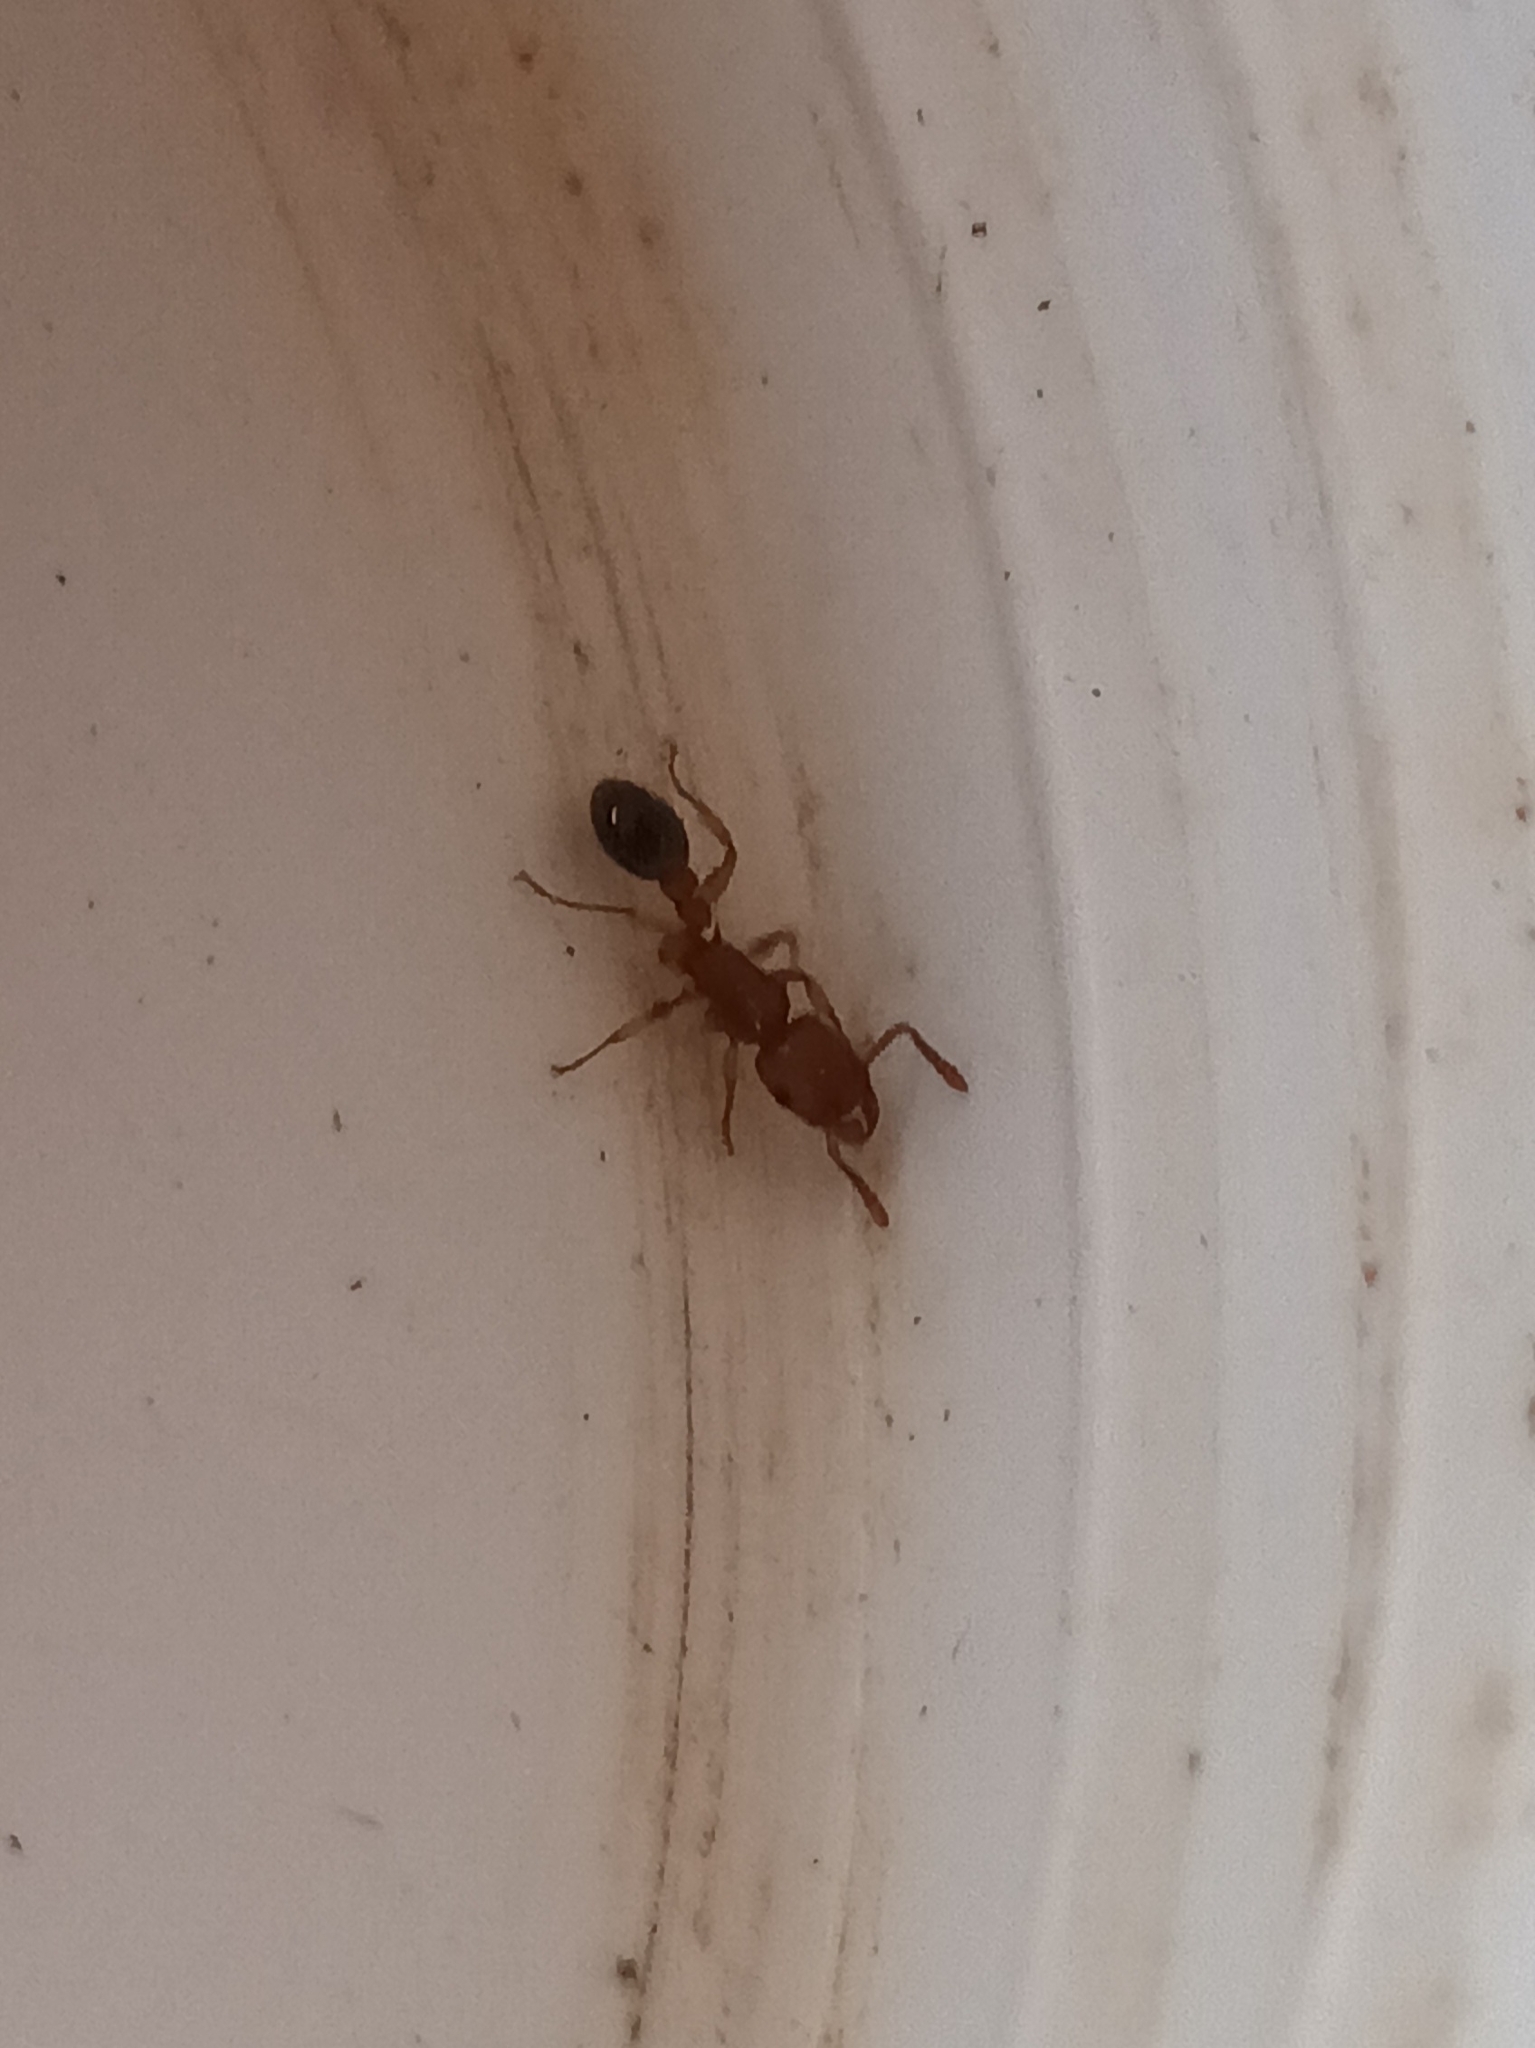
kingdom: Animalia
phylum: Arthropoda
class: Insecta
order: Hymenoptera
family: Formicidae
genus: Tetramorium
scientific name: Tetramorium bicarinatum
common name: Guinea ant
